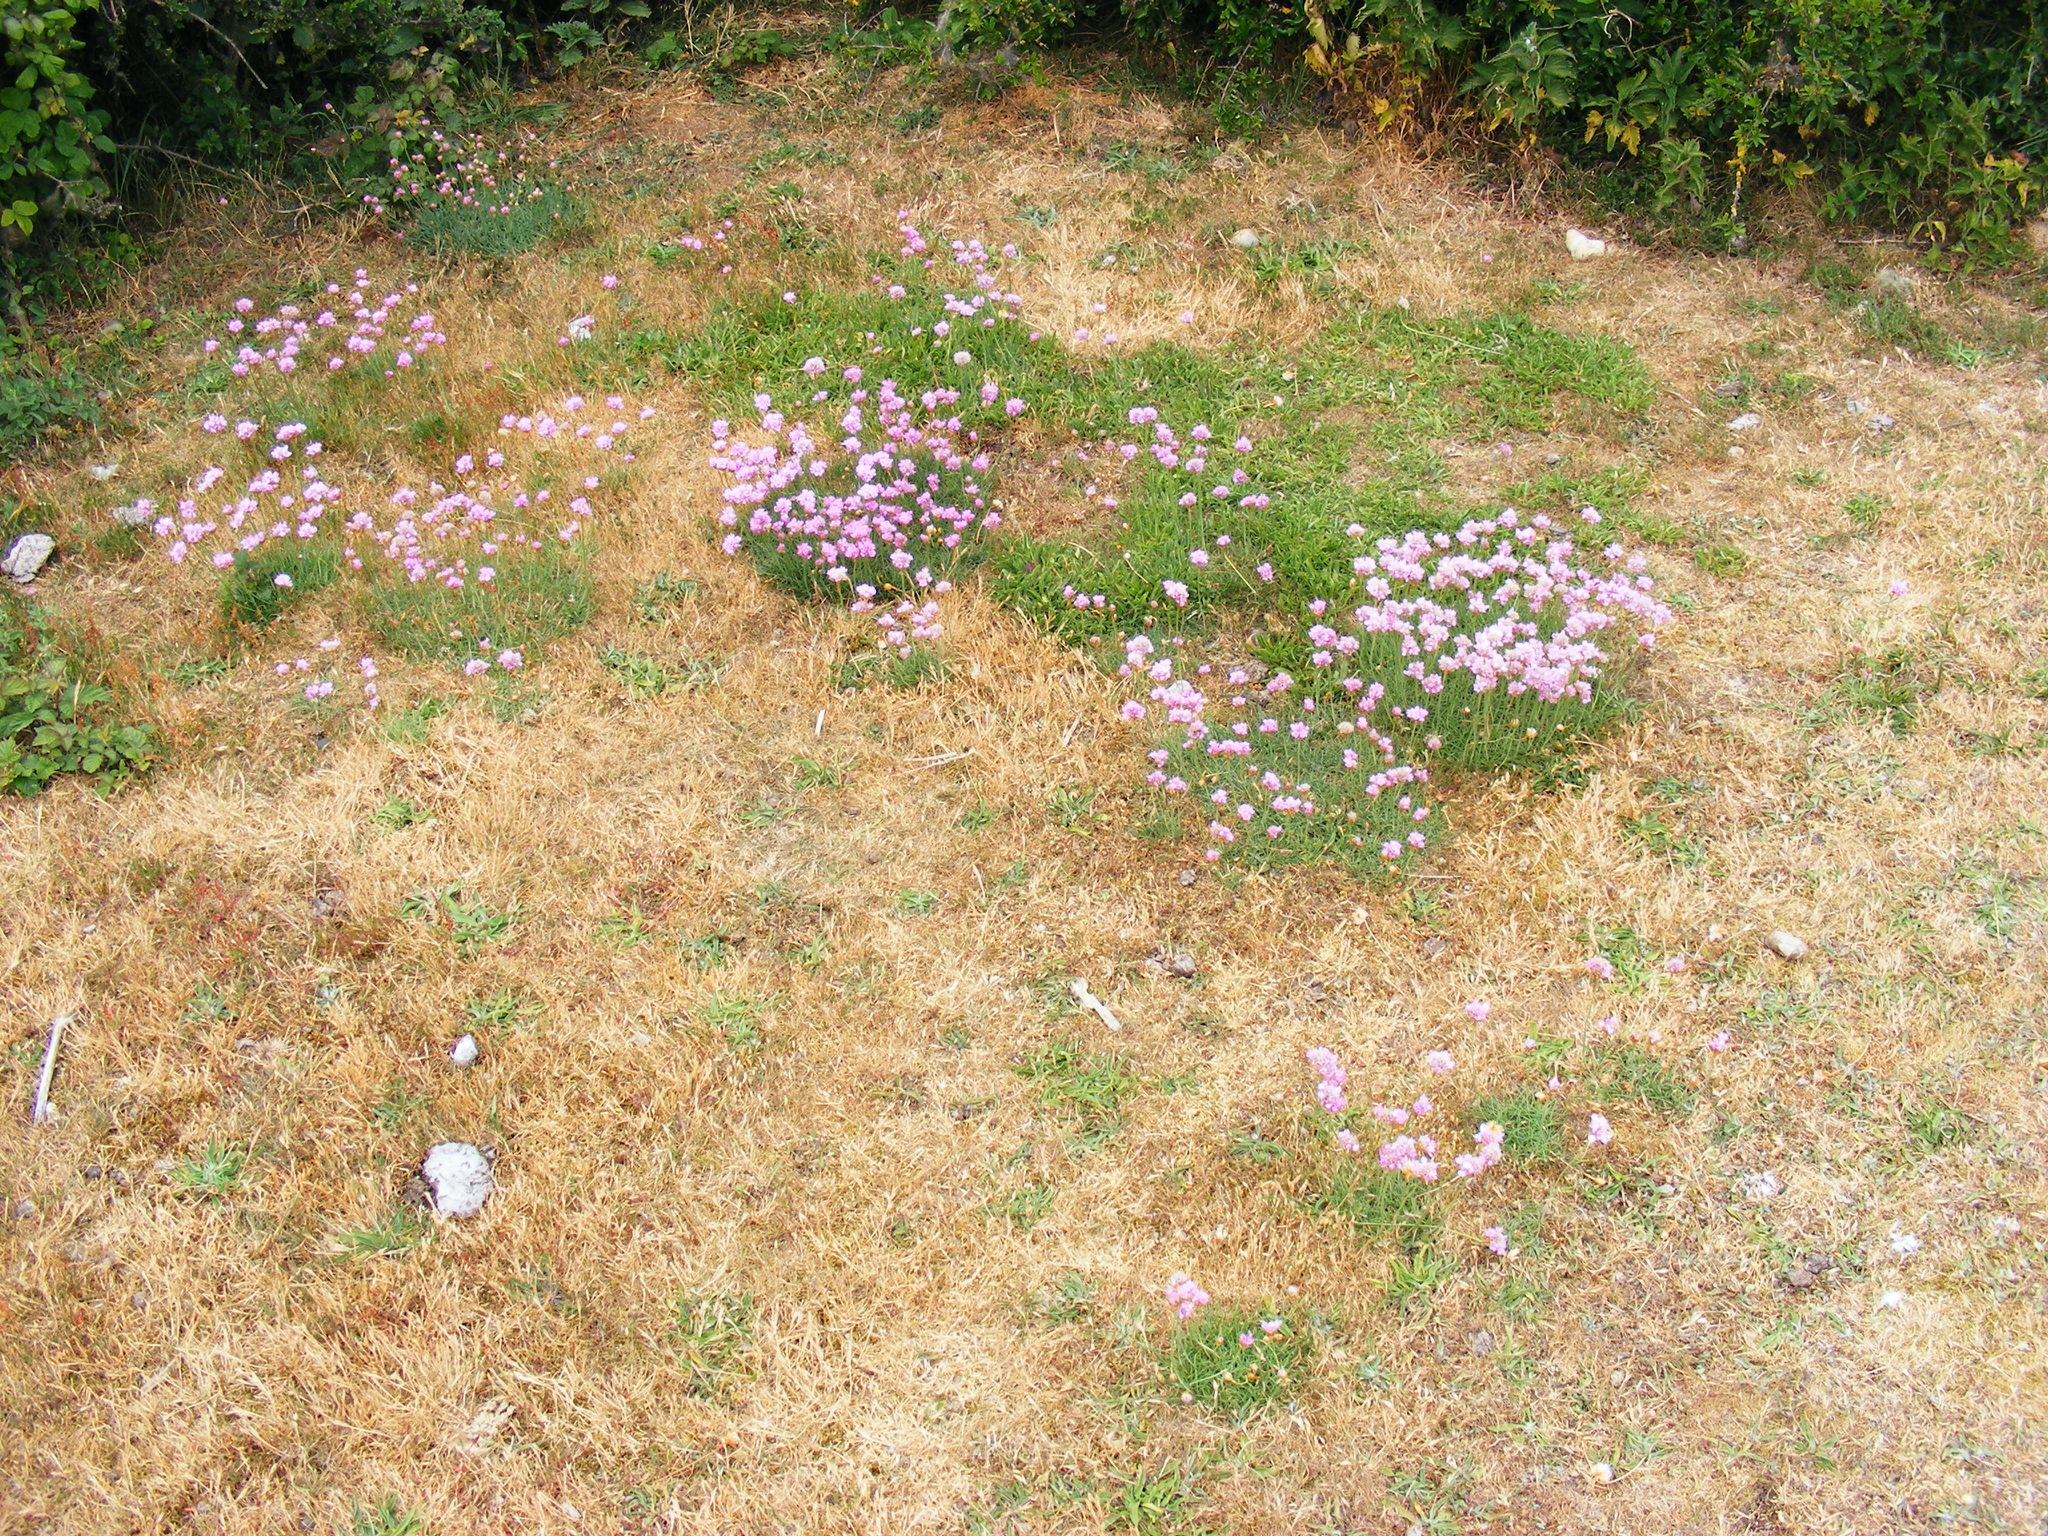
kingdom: Plantae
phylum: Tracheophyta
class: Magnoliopsida
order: Caryophyllales
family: Plumbaginaceae
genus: Armeria
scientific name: Armeria maritima
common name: Thrift
